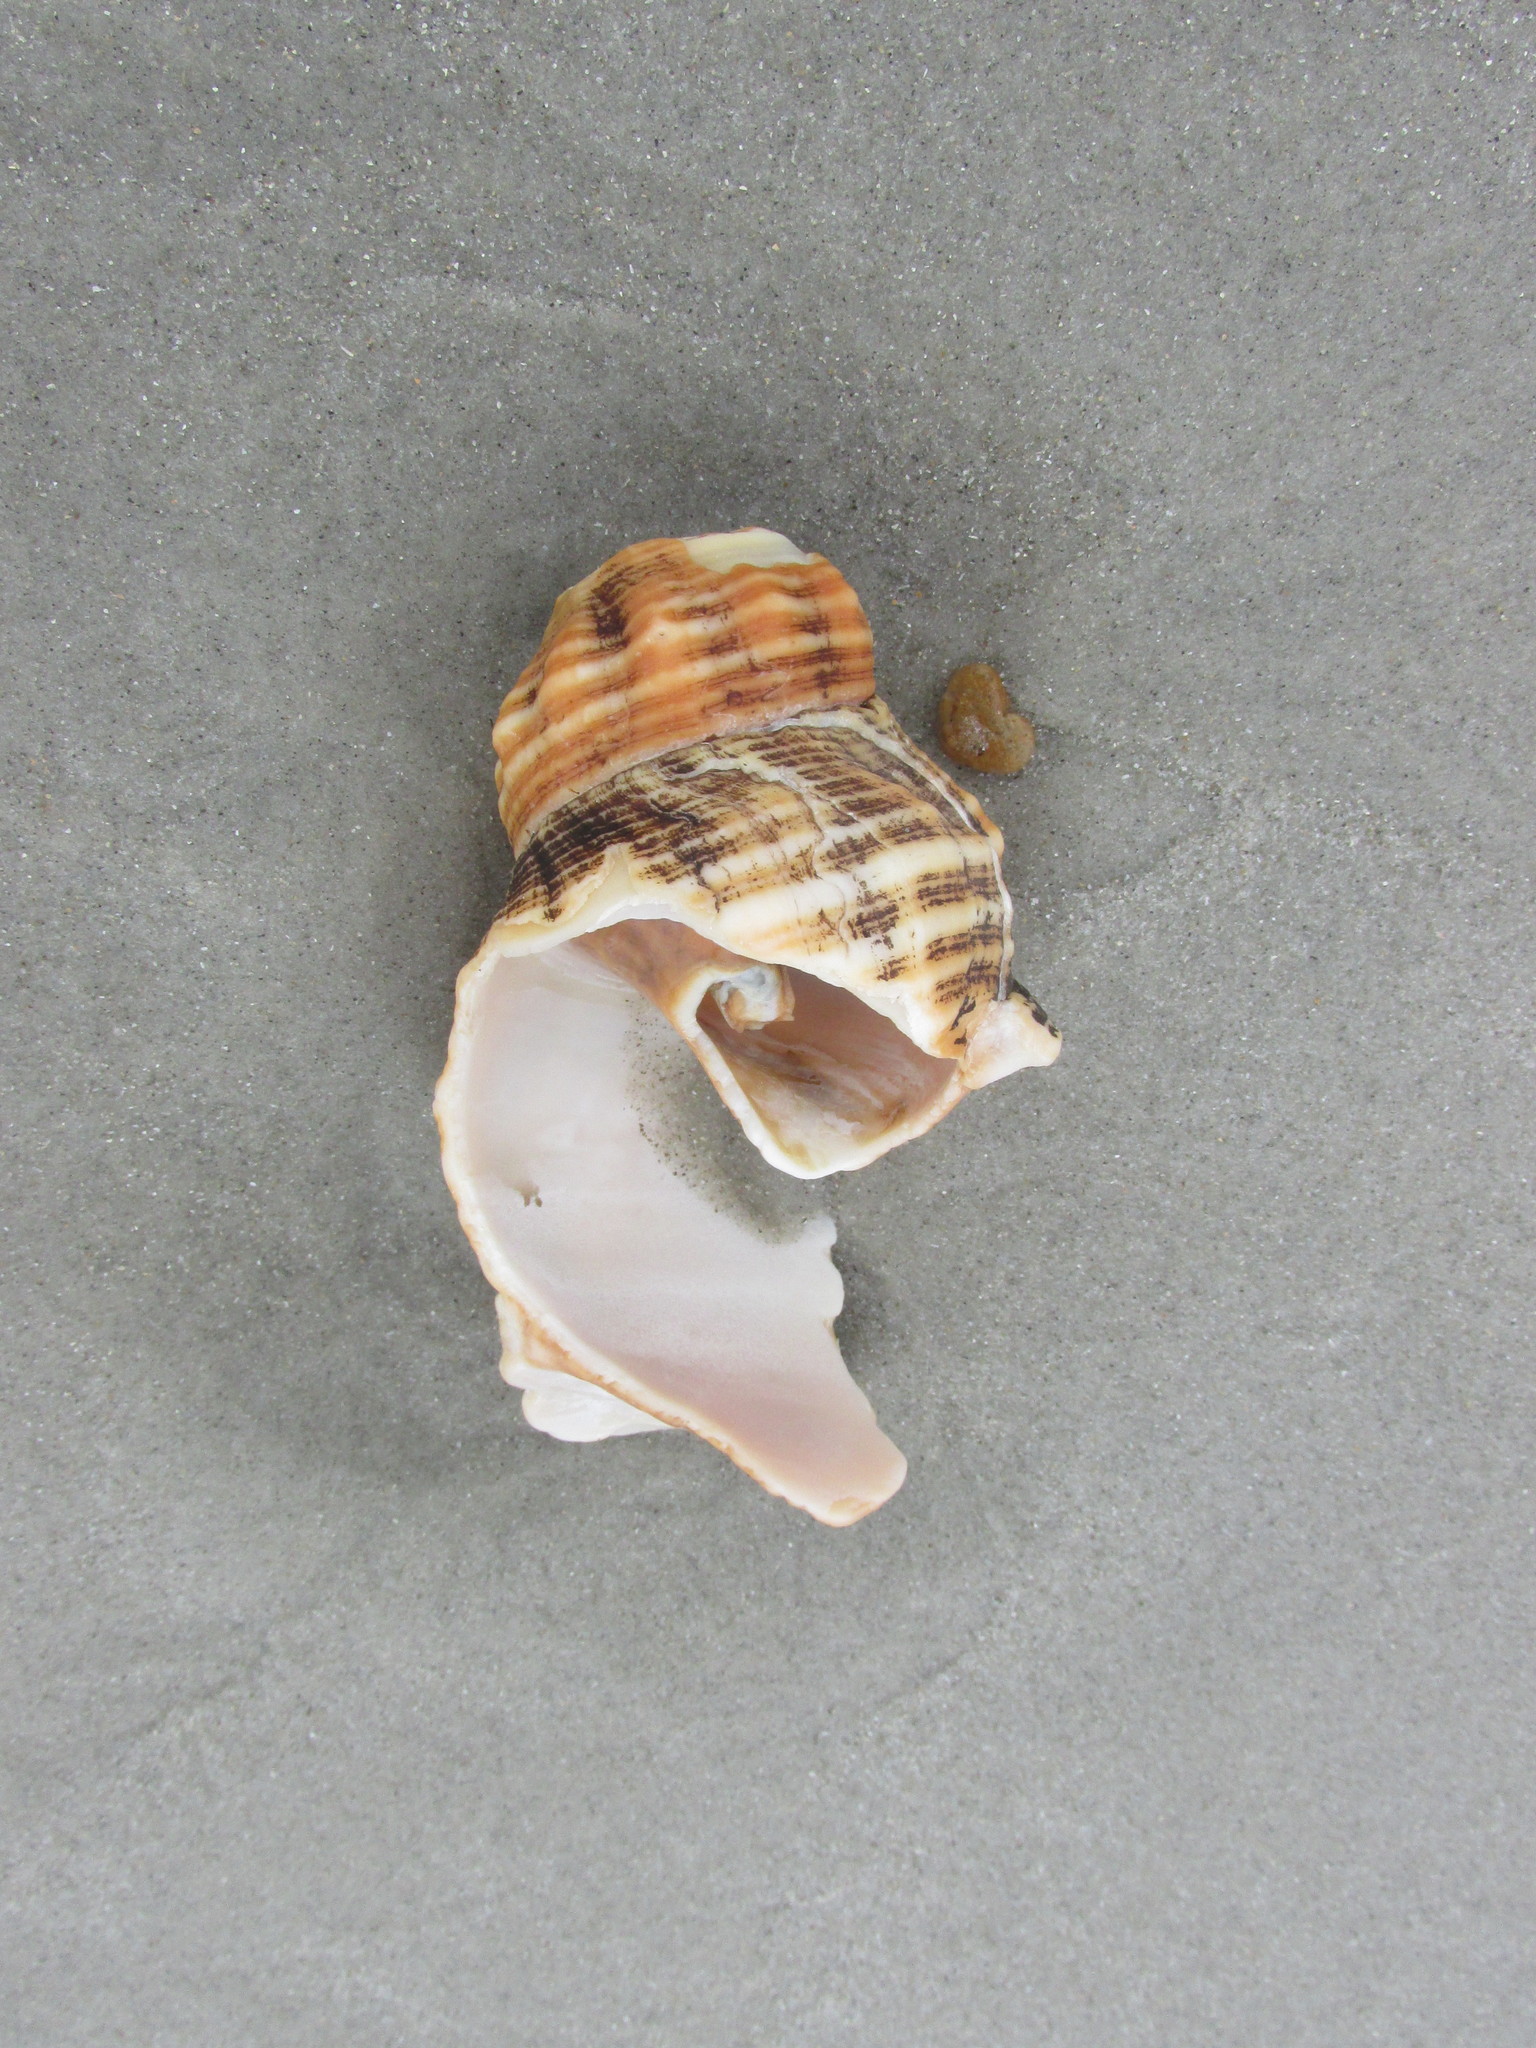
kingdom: Animalia
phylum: Mollusca
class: Gastropoda
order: Neogastropoda
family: Fasciolariidae
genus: Triplofusus
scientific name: Triplofusus giganteus
